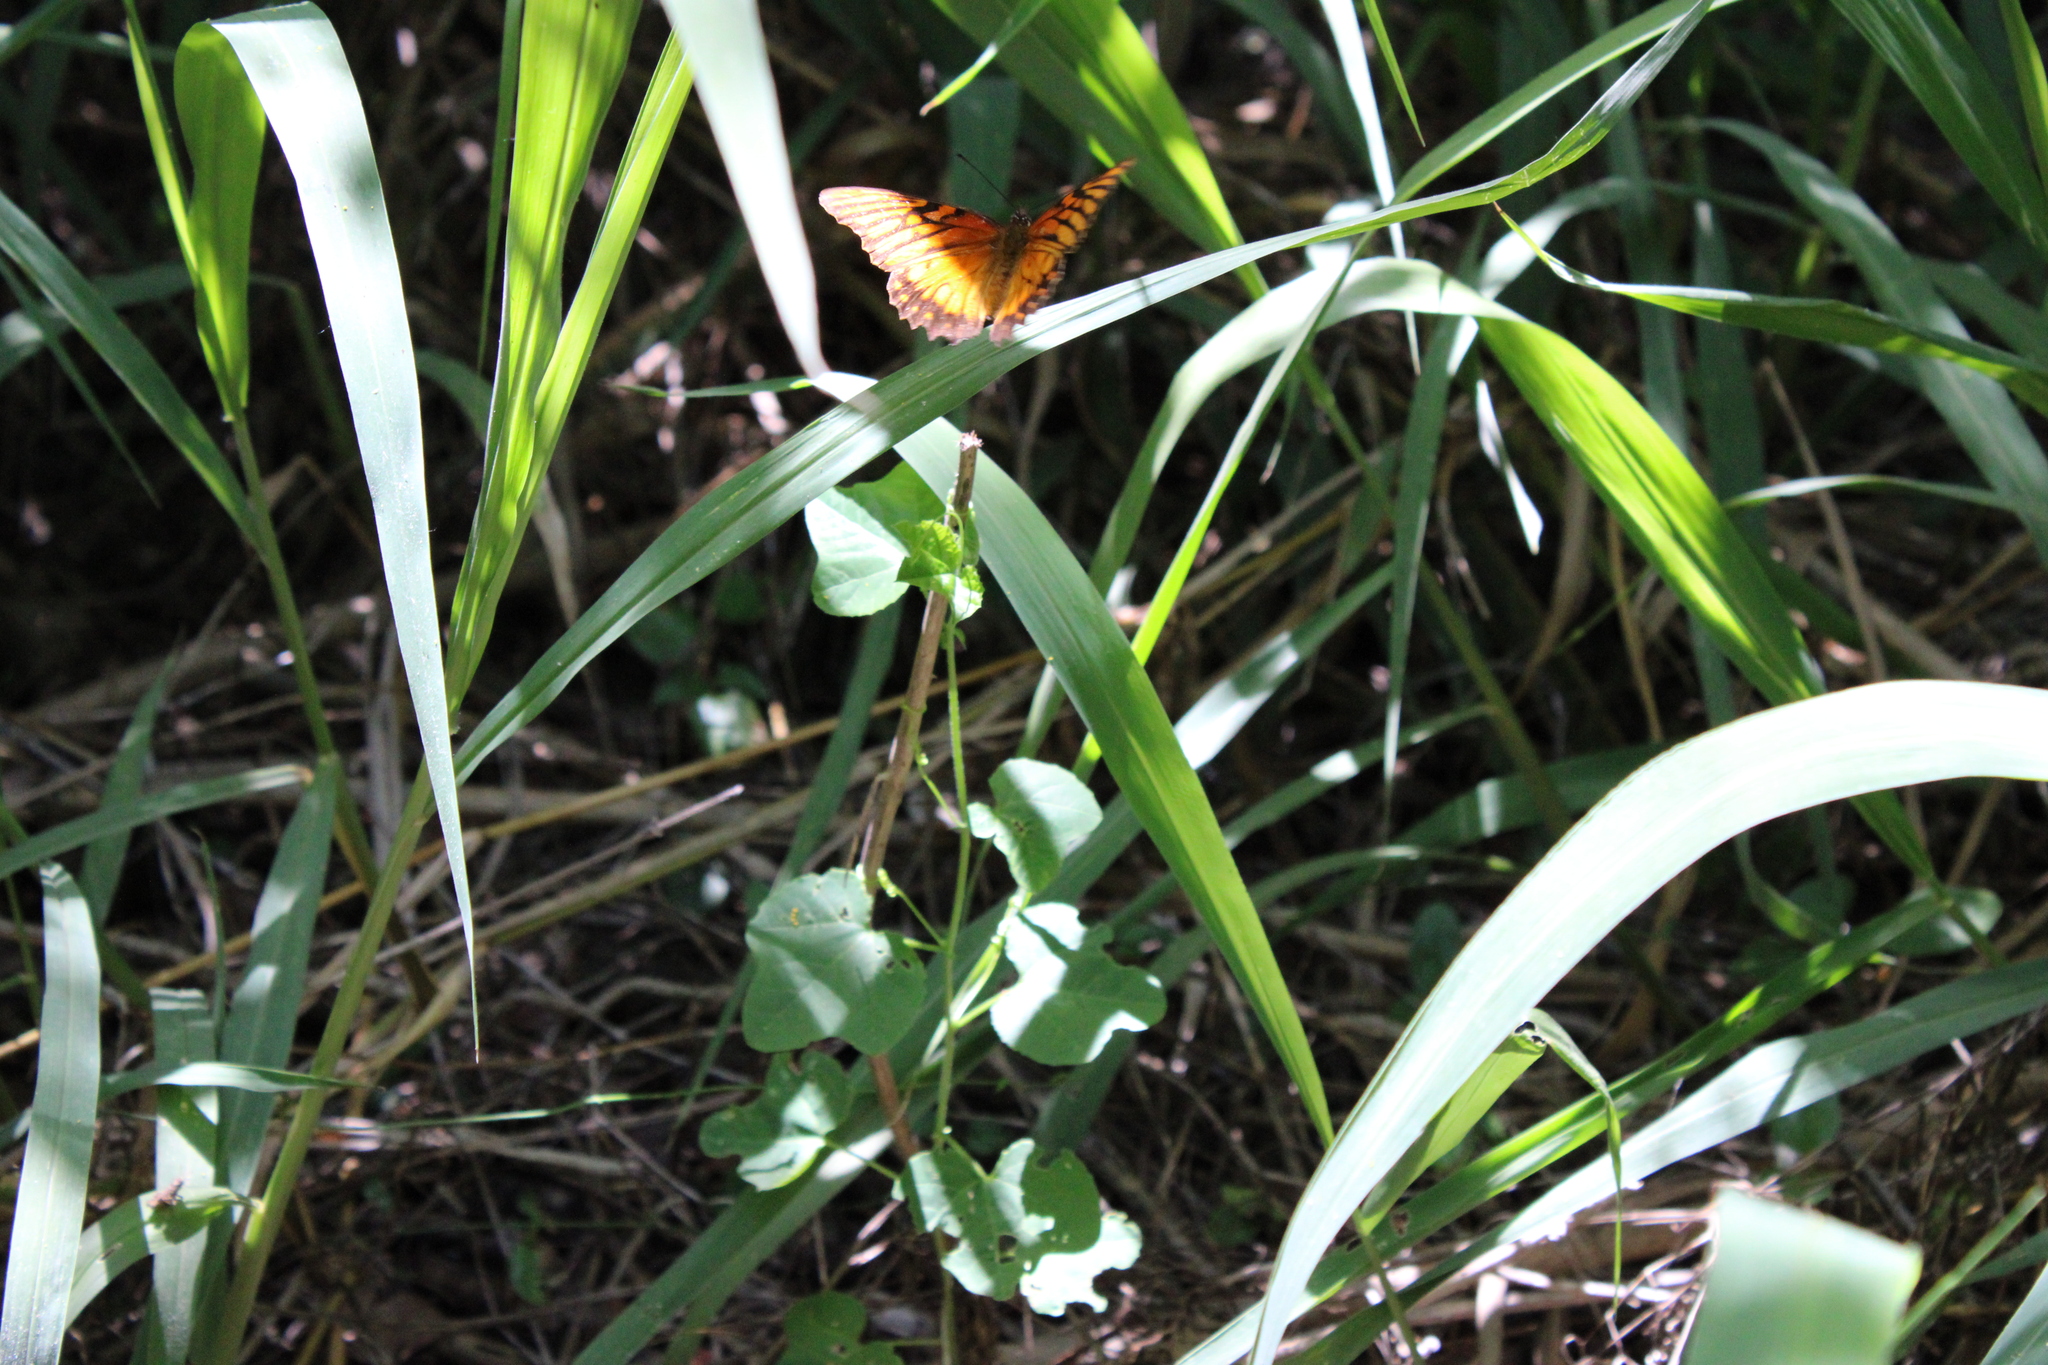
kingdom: Animalia
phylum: Arthropoda
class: Insecta
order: Lepidoptera
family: Nymphalidae
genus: Dione
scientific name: Dione moneta
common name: Mexican silverspot
